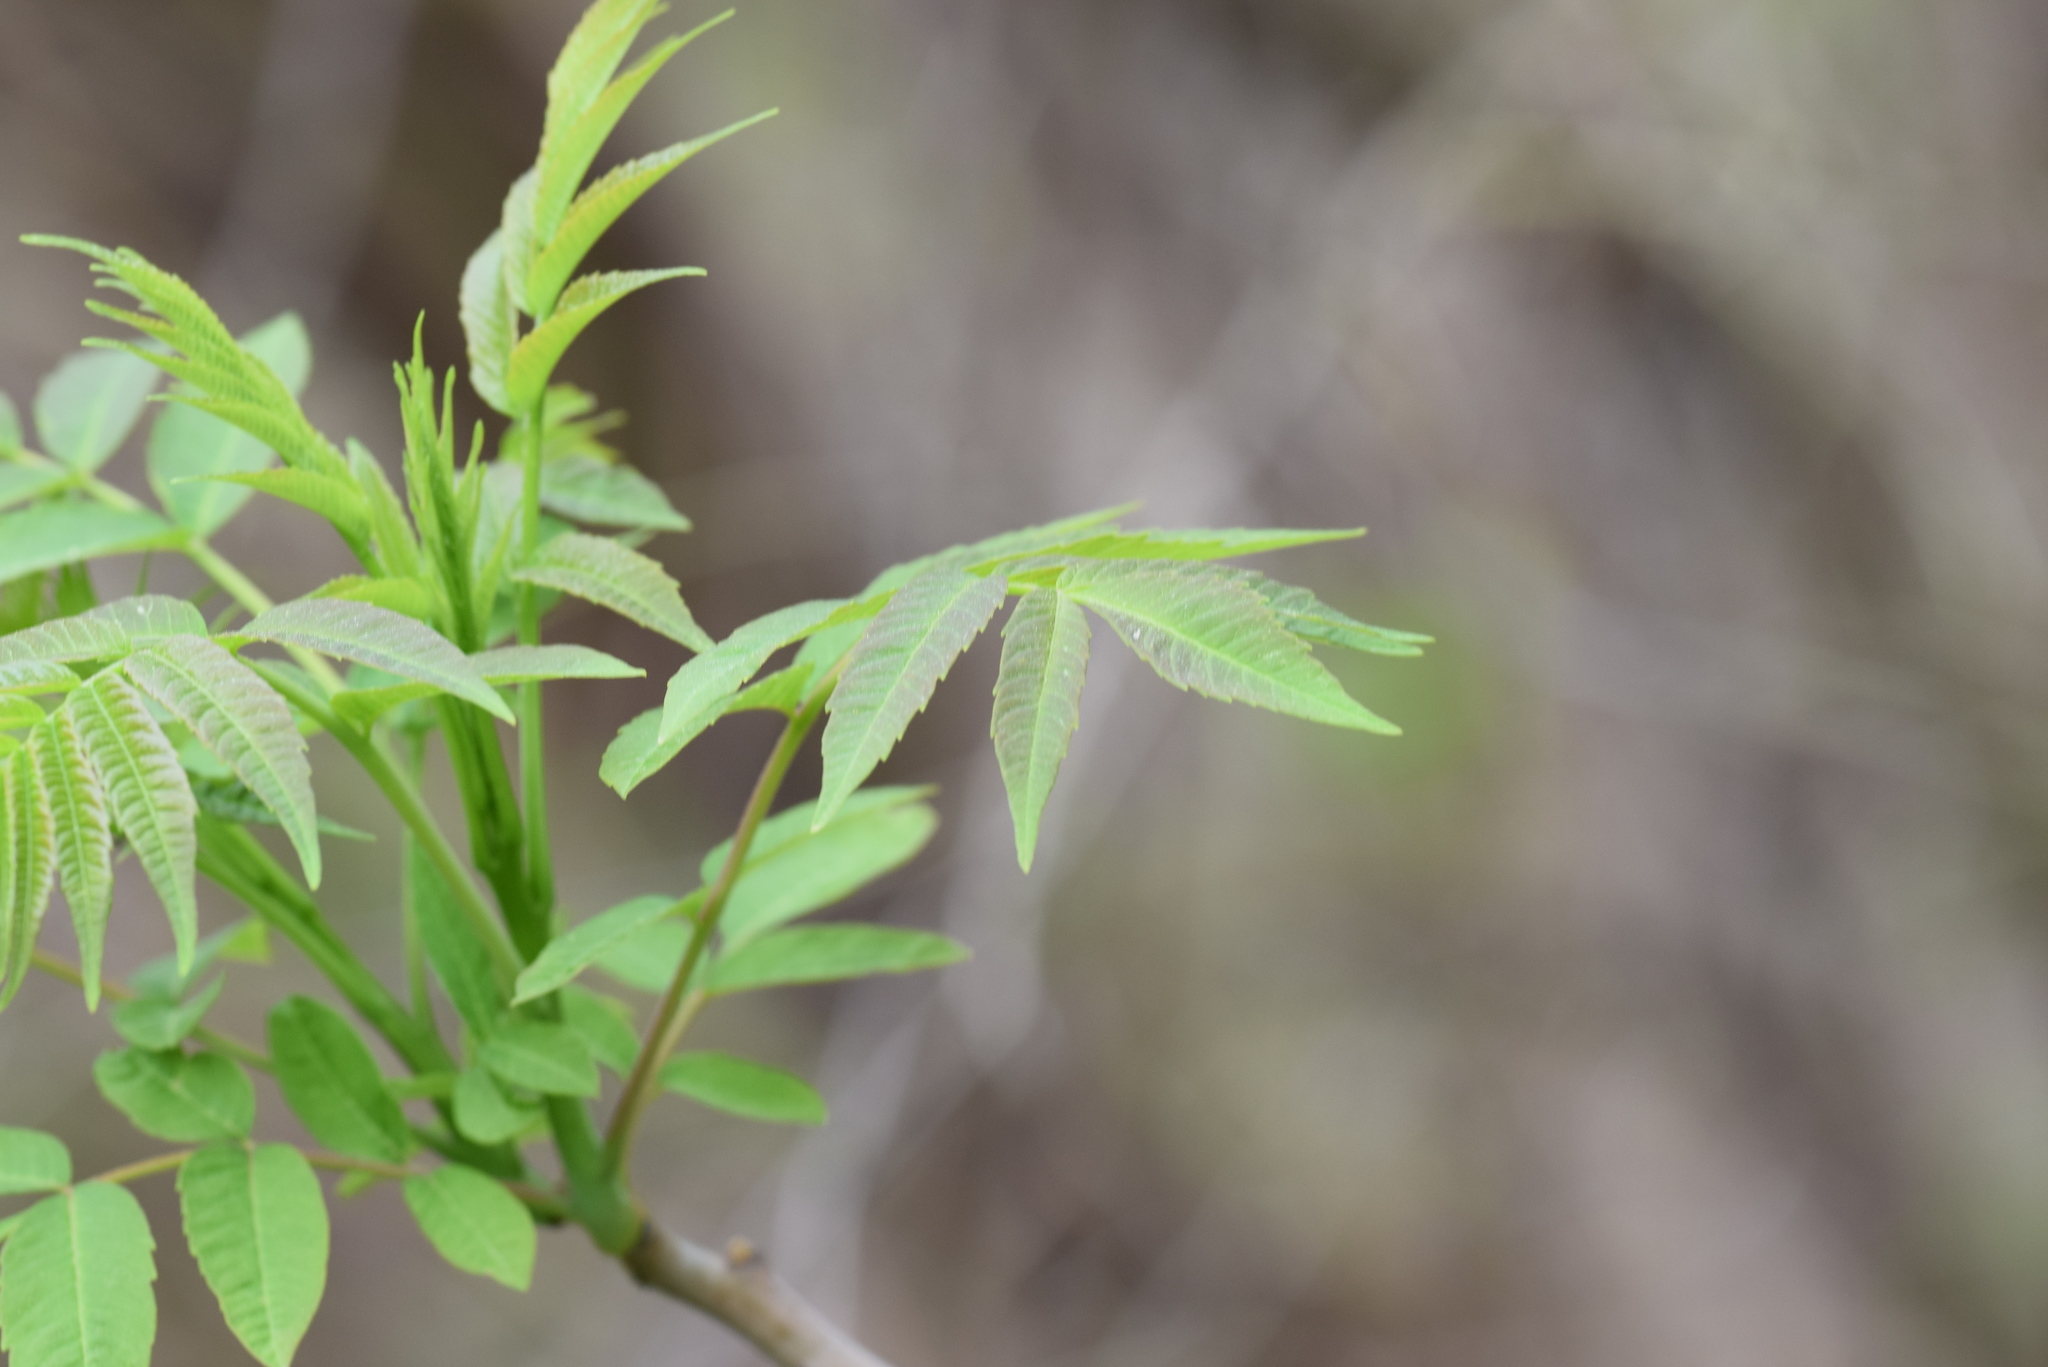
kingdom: Plantae
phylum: Tracheophyta
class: Magnoliopsida
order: Sapindales
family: Anacardiaceae
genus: Rhus
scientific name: Rhus glabra
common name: Scarlet sumac
